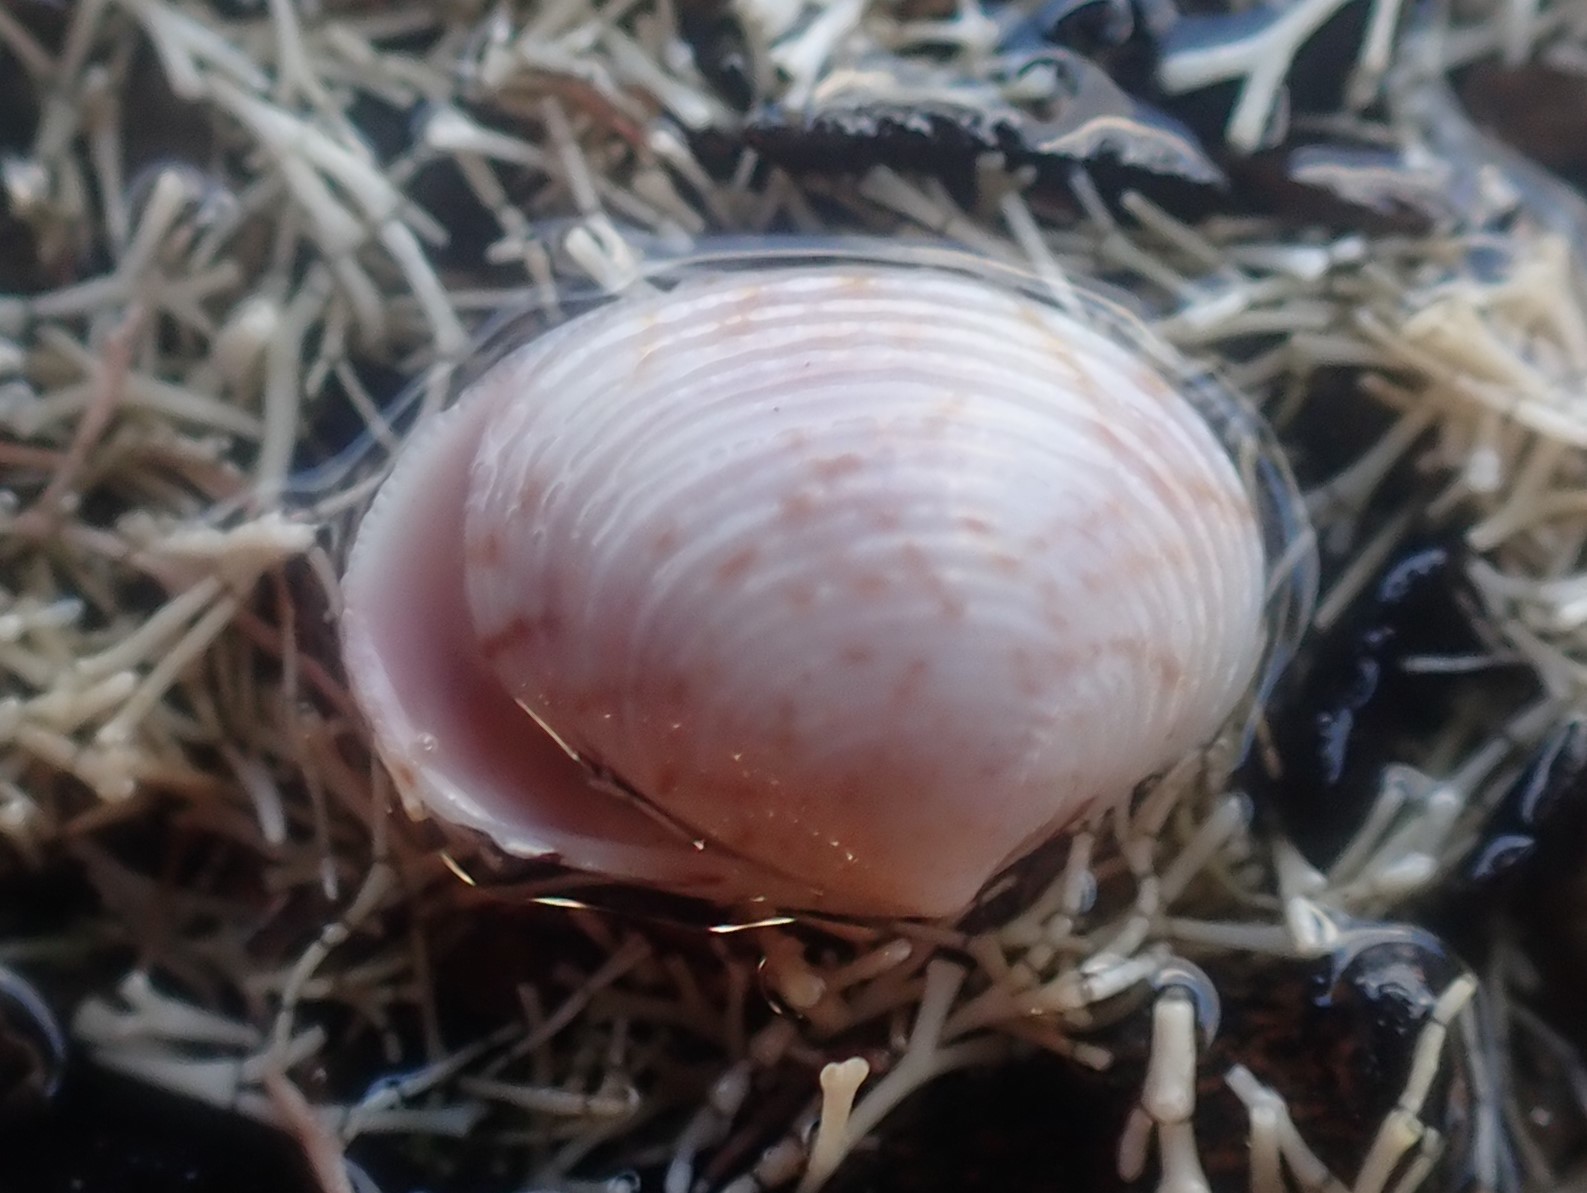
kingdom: Animalia
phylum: Mollusca
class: Bivalvia
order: Venerida
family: Veneridae
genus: Tawera
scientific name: Tawera spissa
